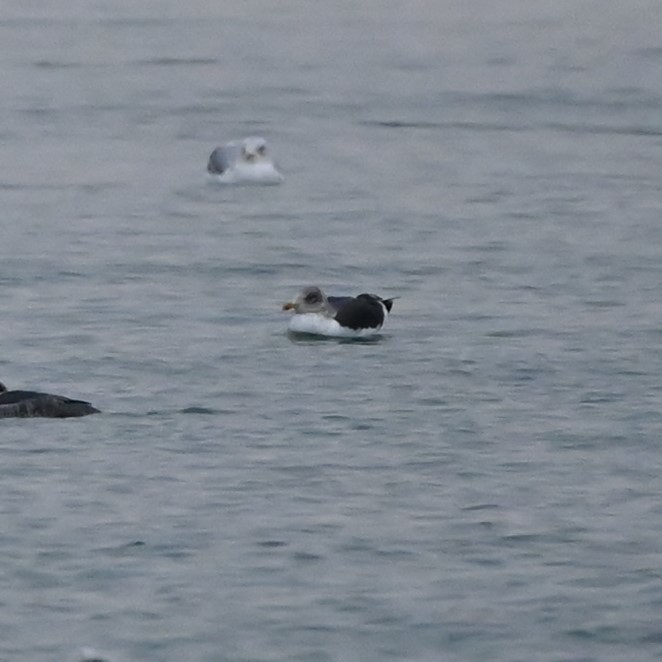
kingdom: Animalia
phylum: Chordata
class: Aves
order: Charadriiformes
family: Laridae
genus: Larus
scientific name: Larus fuscus
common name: Lesser black-backed gull
